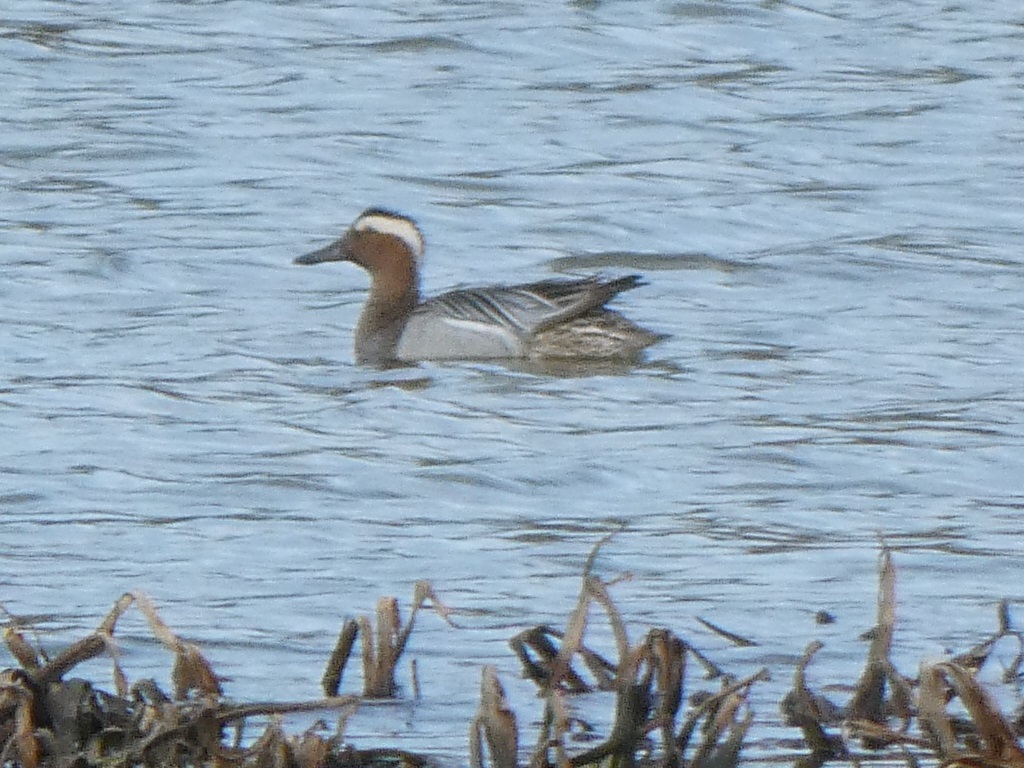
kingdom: Animalia
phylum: Chordata
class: Aves
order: Anseriformes
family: Anatidae
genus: Spatula
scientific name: Spatula querquedula
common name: Garganey
